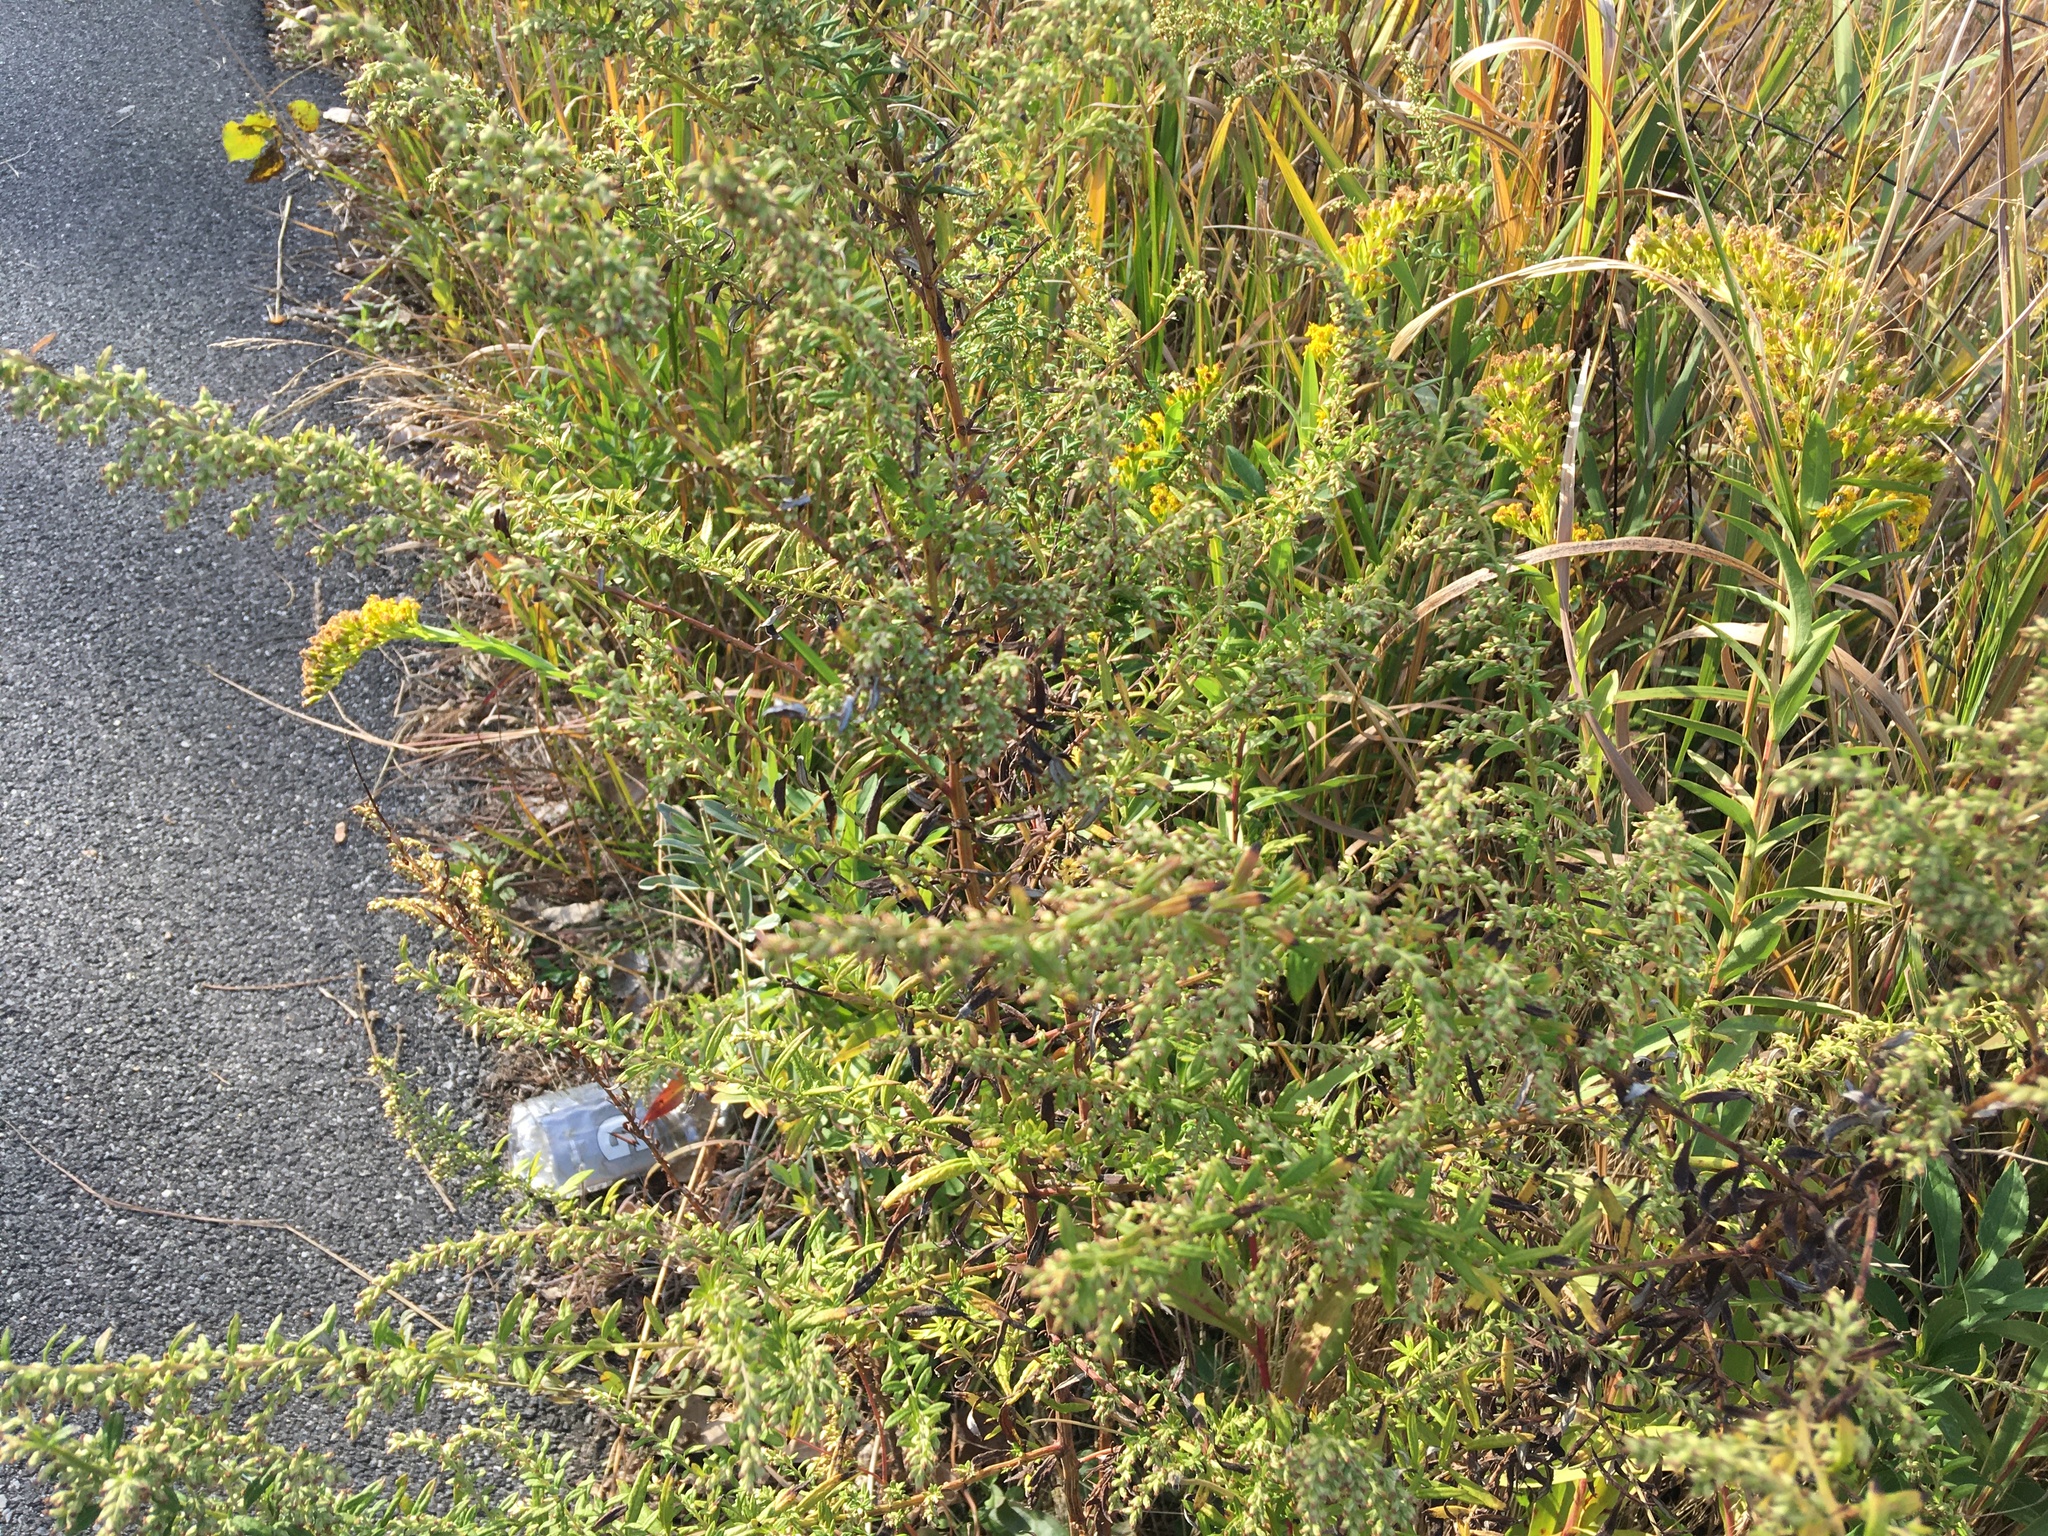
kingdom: Plantae
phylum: Tracheophyta
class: Magnoliopsida
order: Asterales
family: Asteraceae
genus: Artemisia
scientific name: Artemisia vulgaris
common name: Mugwort
